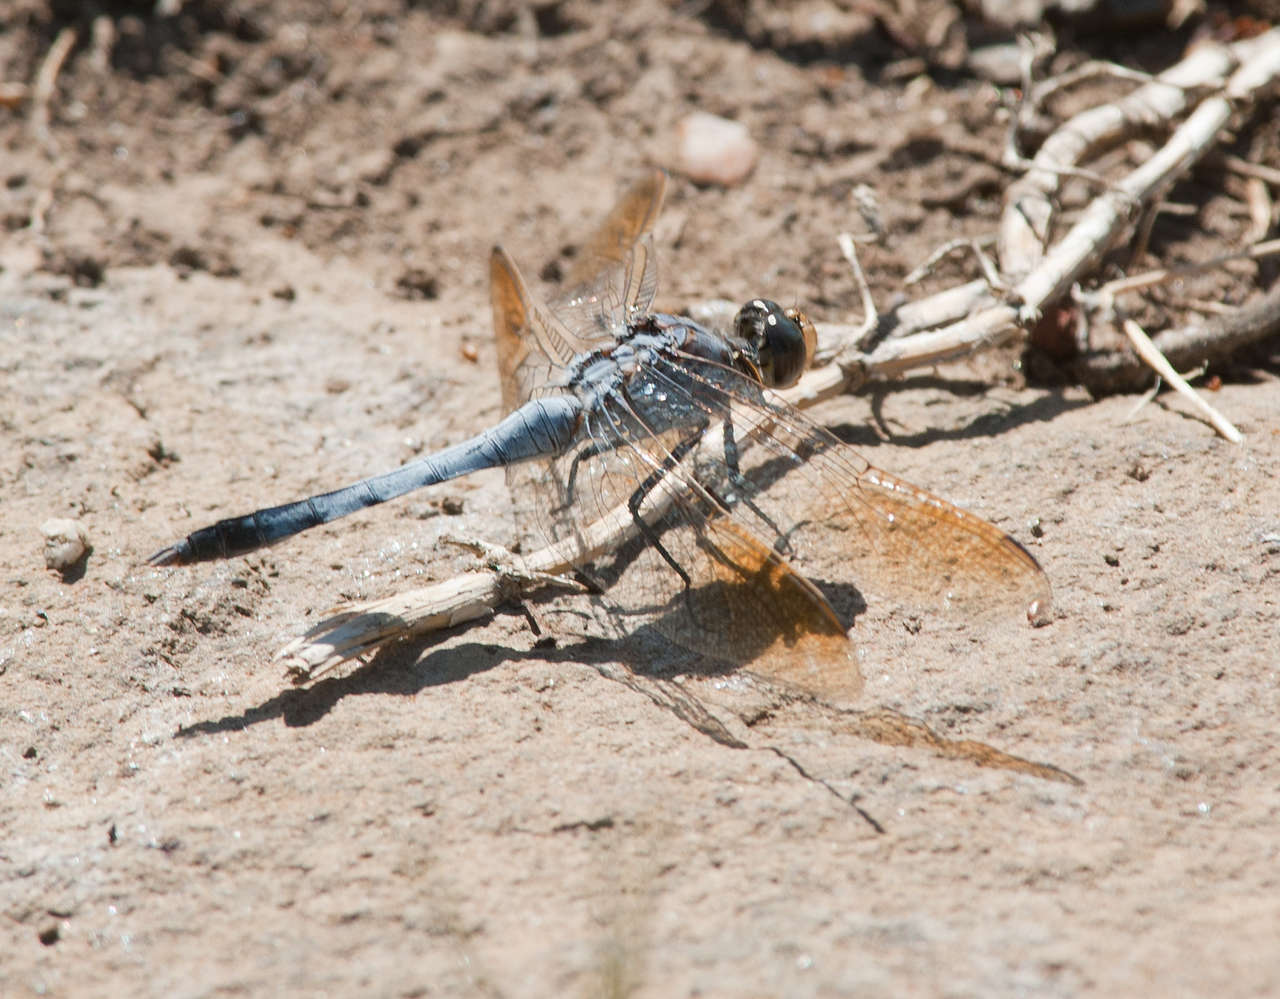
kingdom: Animalia
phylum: Arthropoda
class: Insecta
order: Odonata
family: Libellulidae
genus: Orthetrum
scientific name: Orthetrum caledonicum
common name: Blue skimmer
